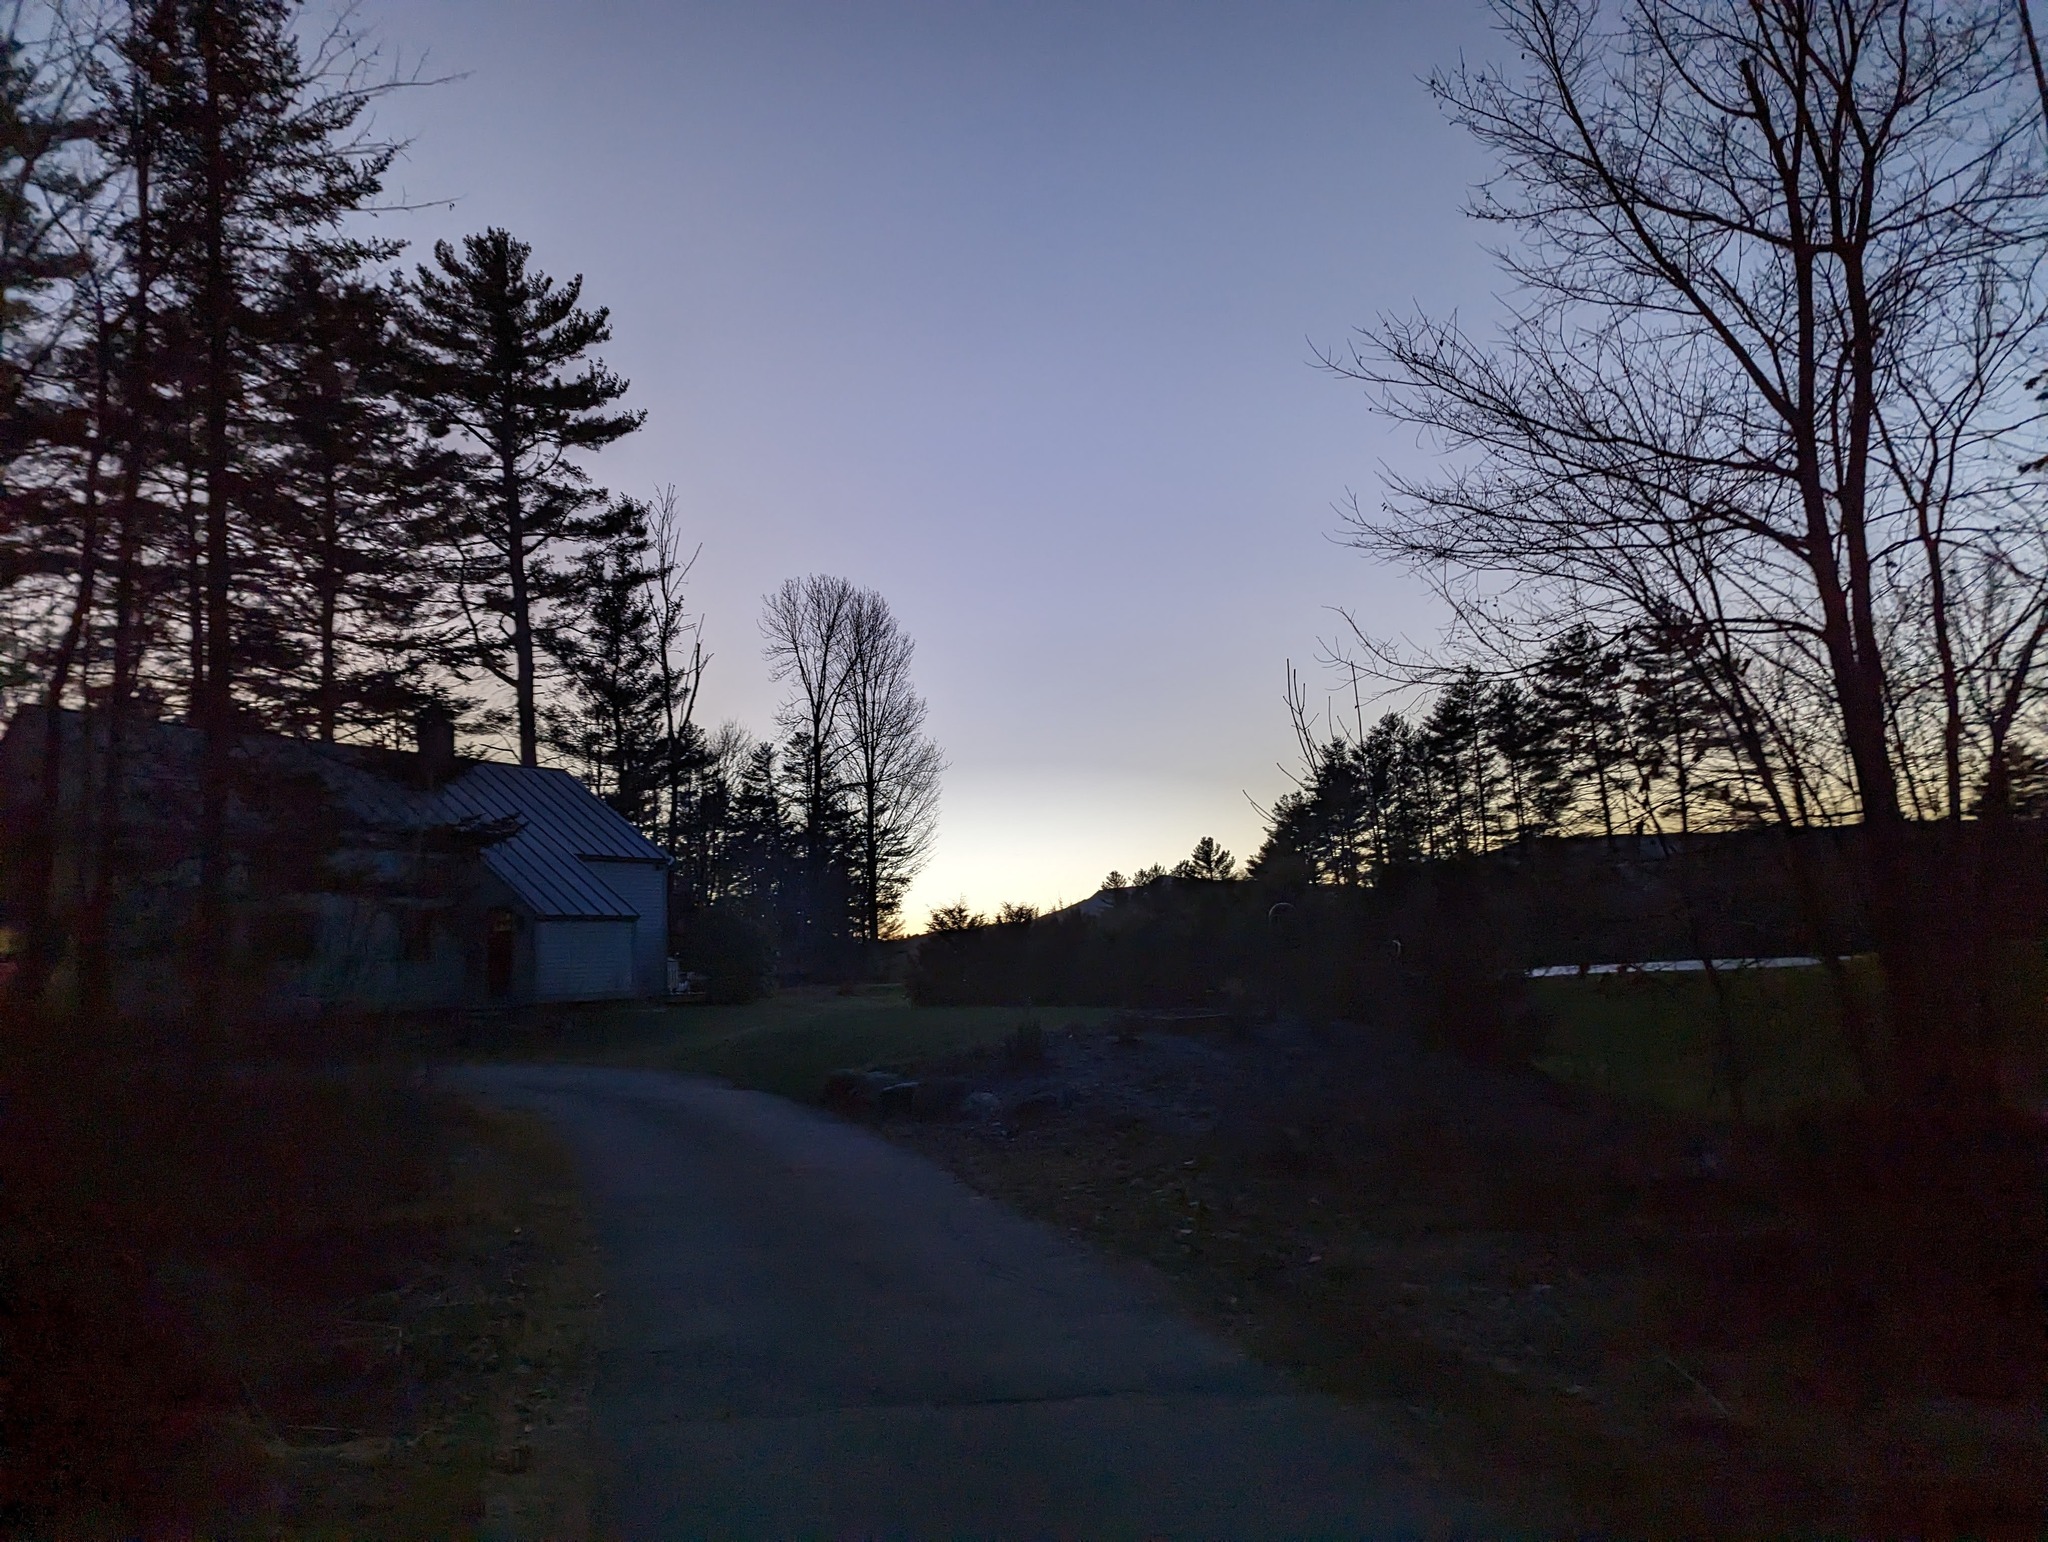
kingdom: Plantae
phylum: Tracheophyta
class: Pinopsida
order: Pinales
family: Pinaceae
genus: Pinus
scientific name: Pinus strobus
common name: Weymouth pine
